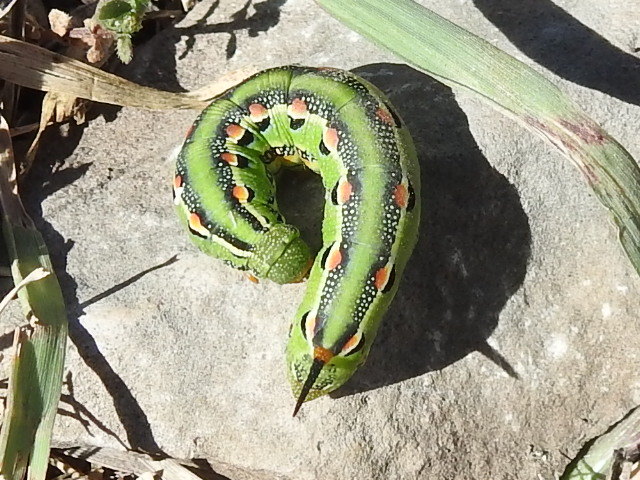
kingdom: Animalia
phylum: Arthropoda
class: Insecta
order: Lepidoptera
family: Sphingidae
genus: Hyles
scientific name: Hyles lineata
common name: White-lined sphinx
